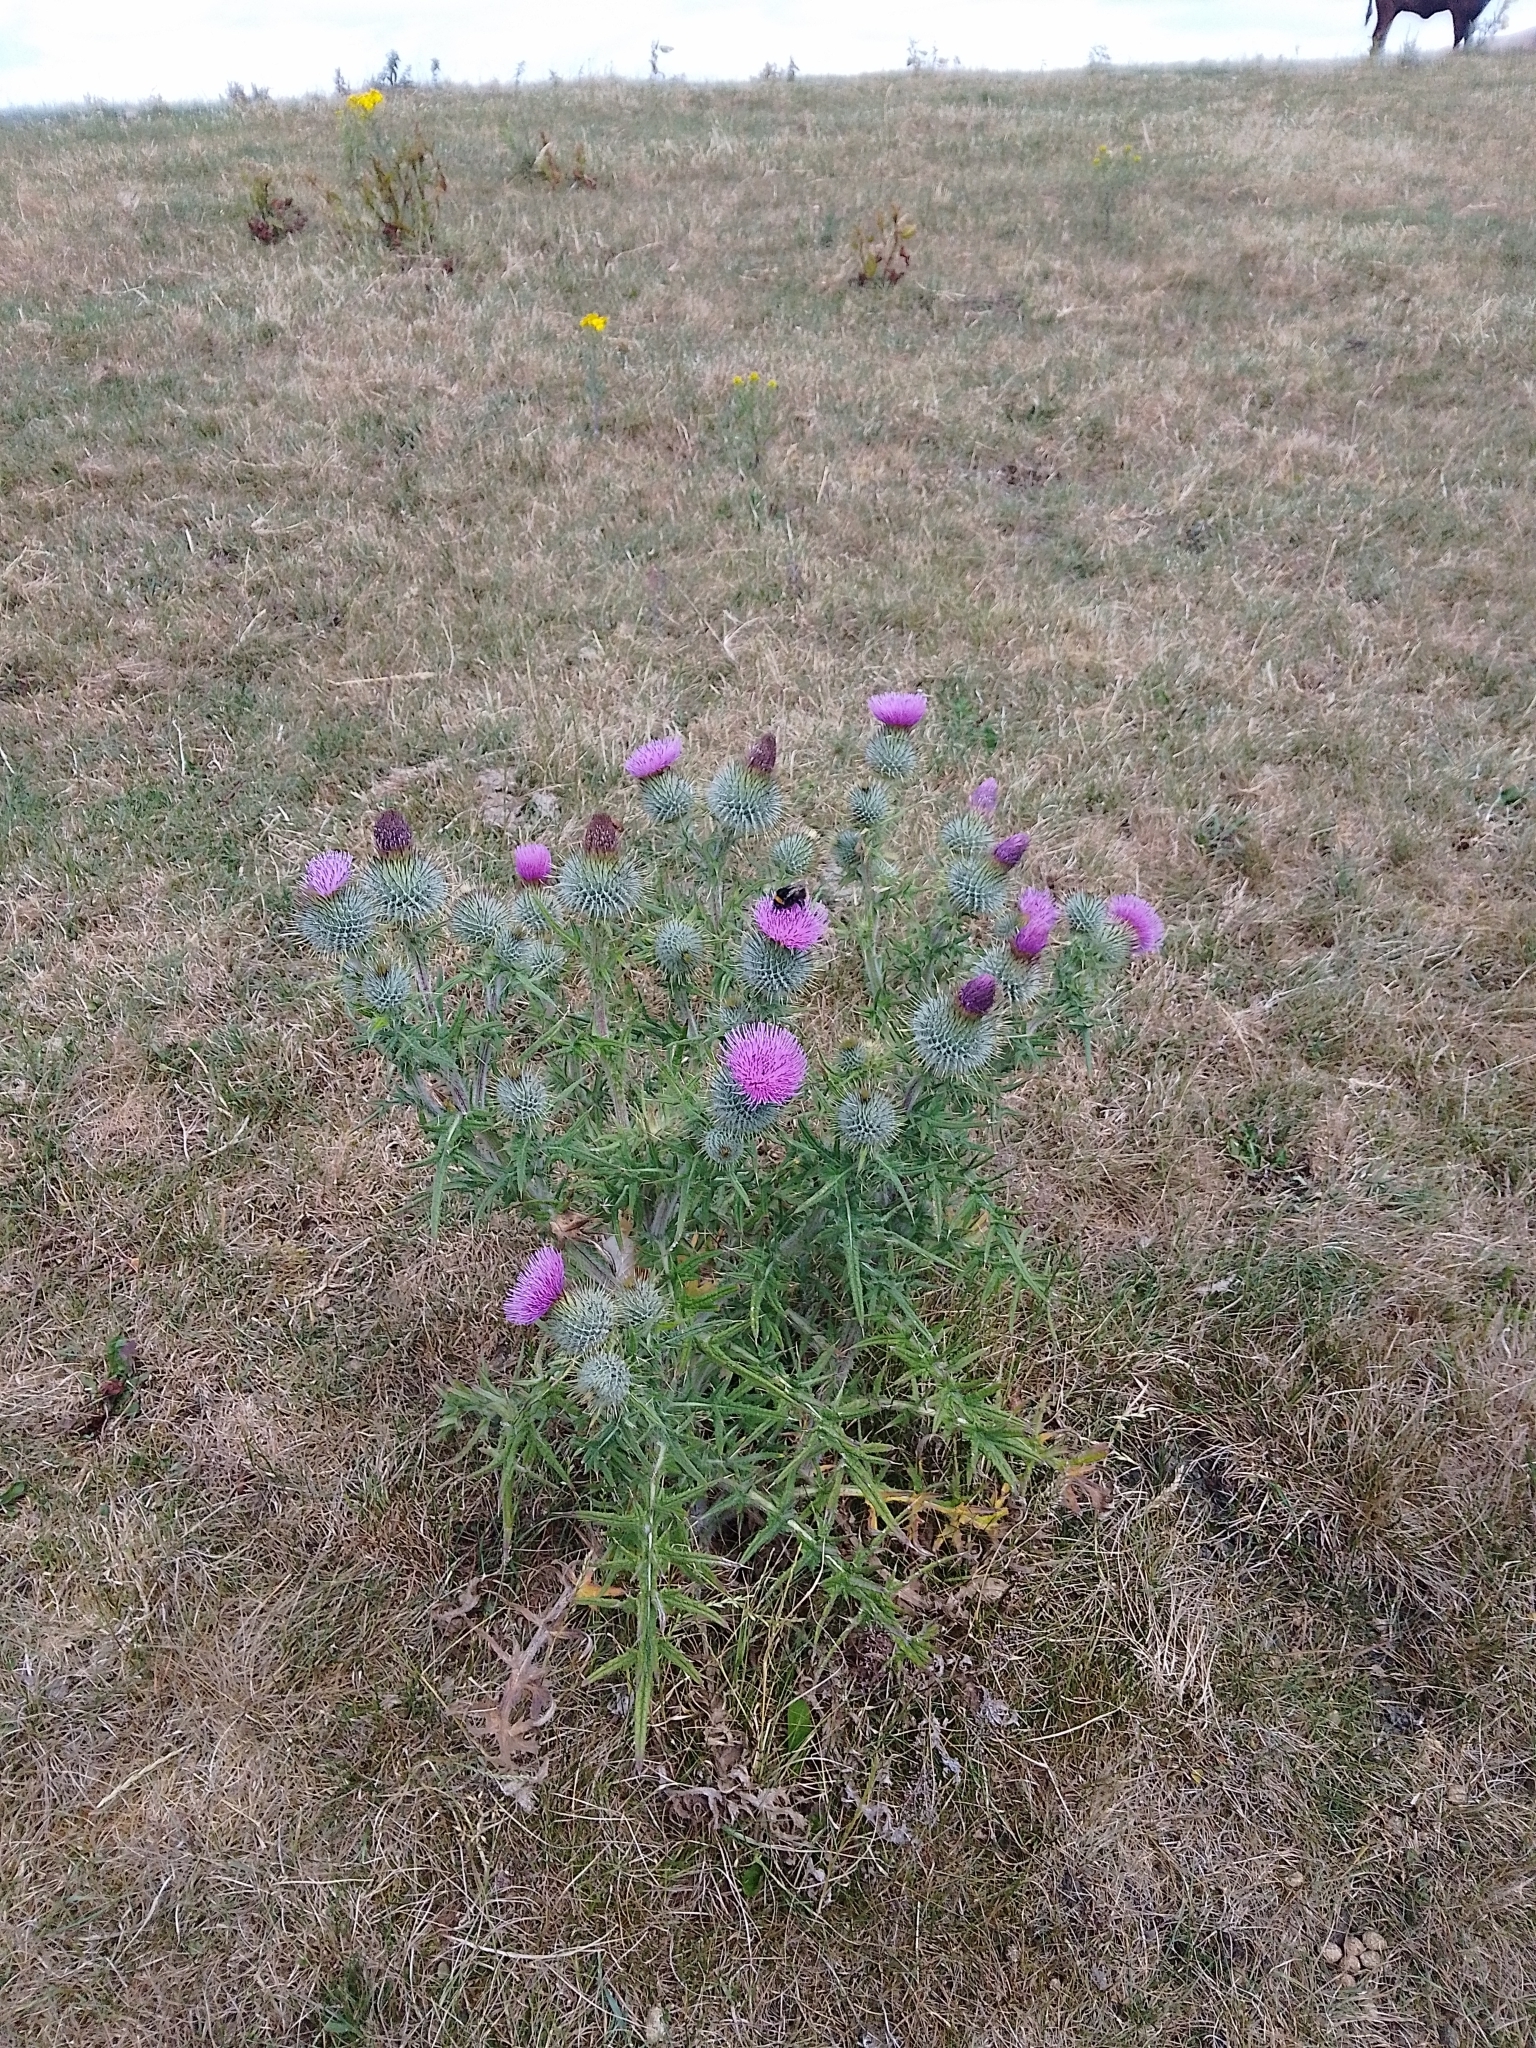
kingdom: Plantae
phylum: Tracheophyta
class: Magnoliopsida
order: Asterales
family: Asteraceae
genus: Cirsium
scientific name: Cirsium vulgare
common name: Bull thistle
